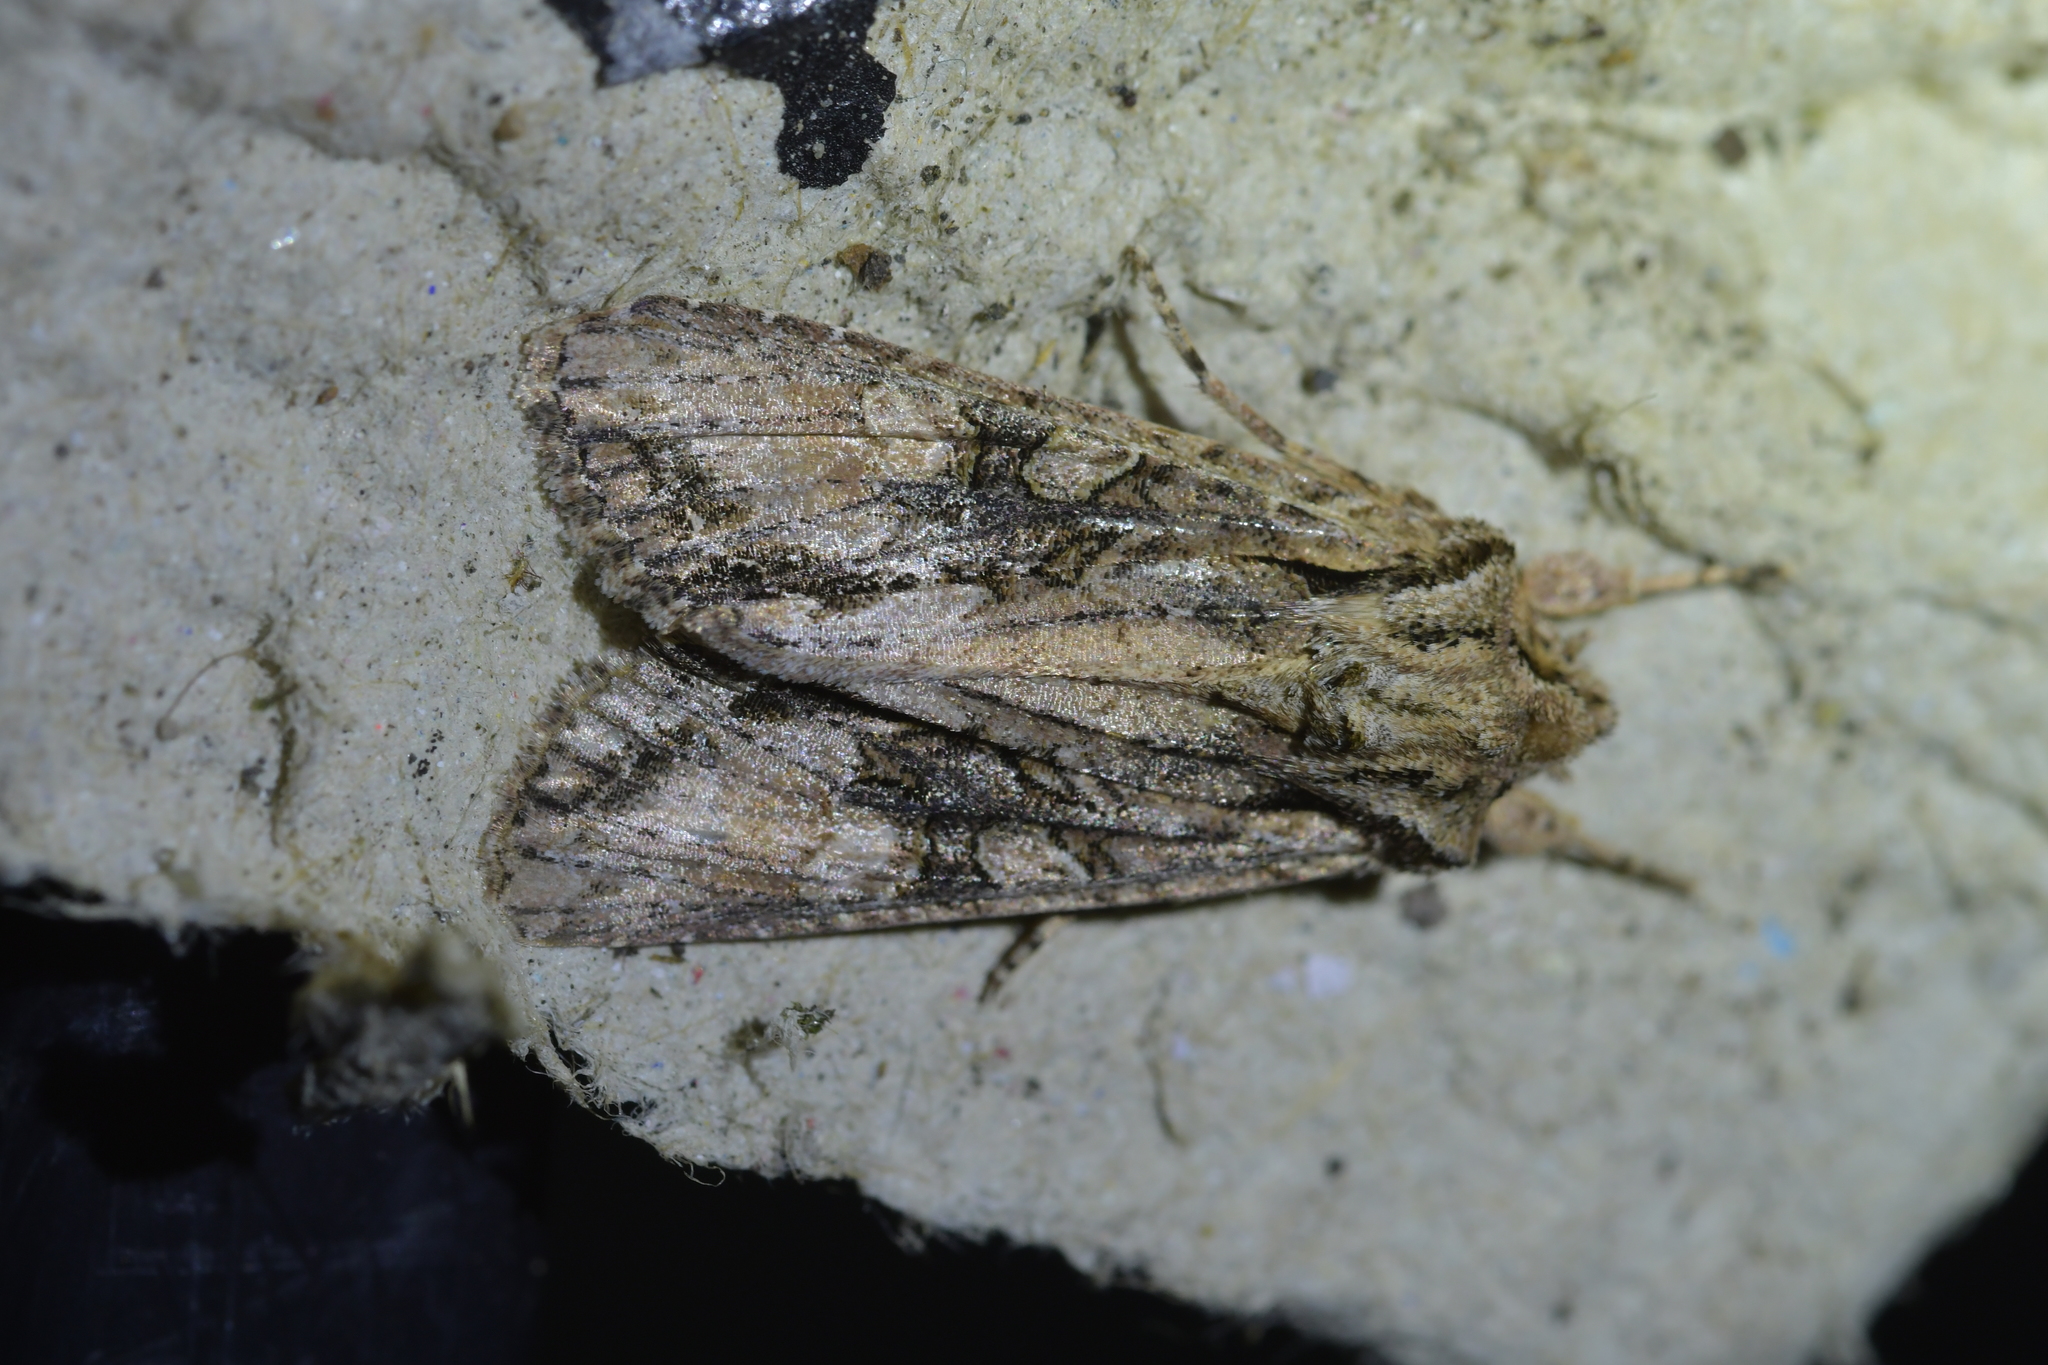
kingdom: Animalia
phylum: Arthropoda
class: Insecta
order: Lepidoptera
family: Noctuidae
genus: Ichneutica
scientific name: Ichneutica mutans
